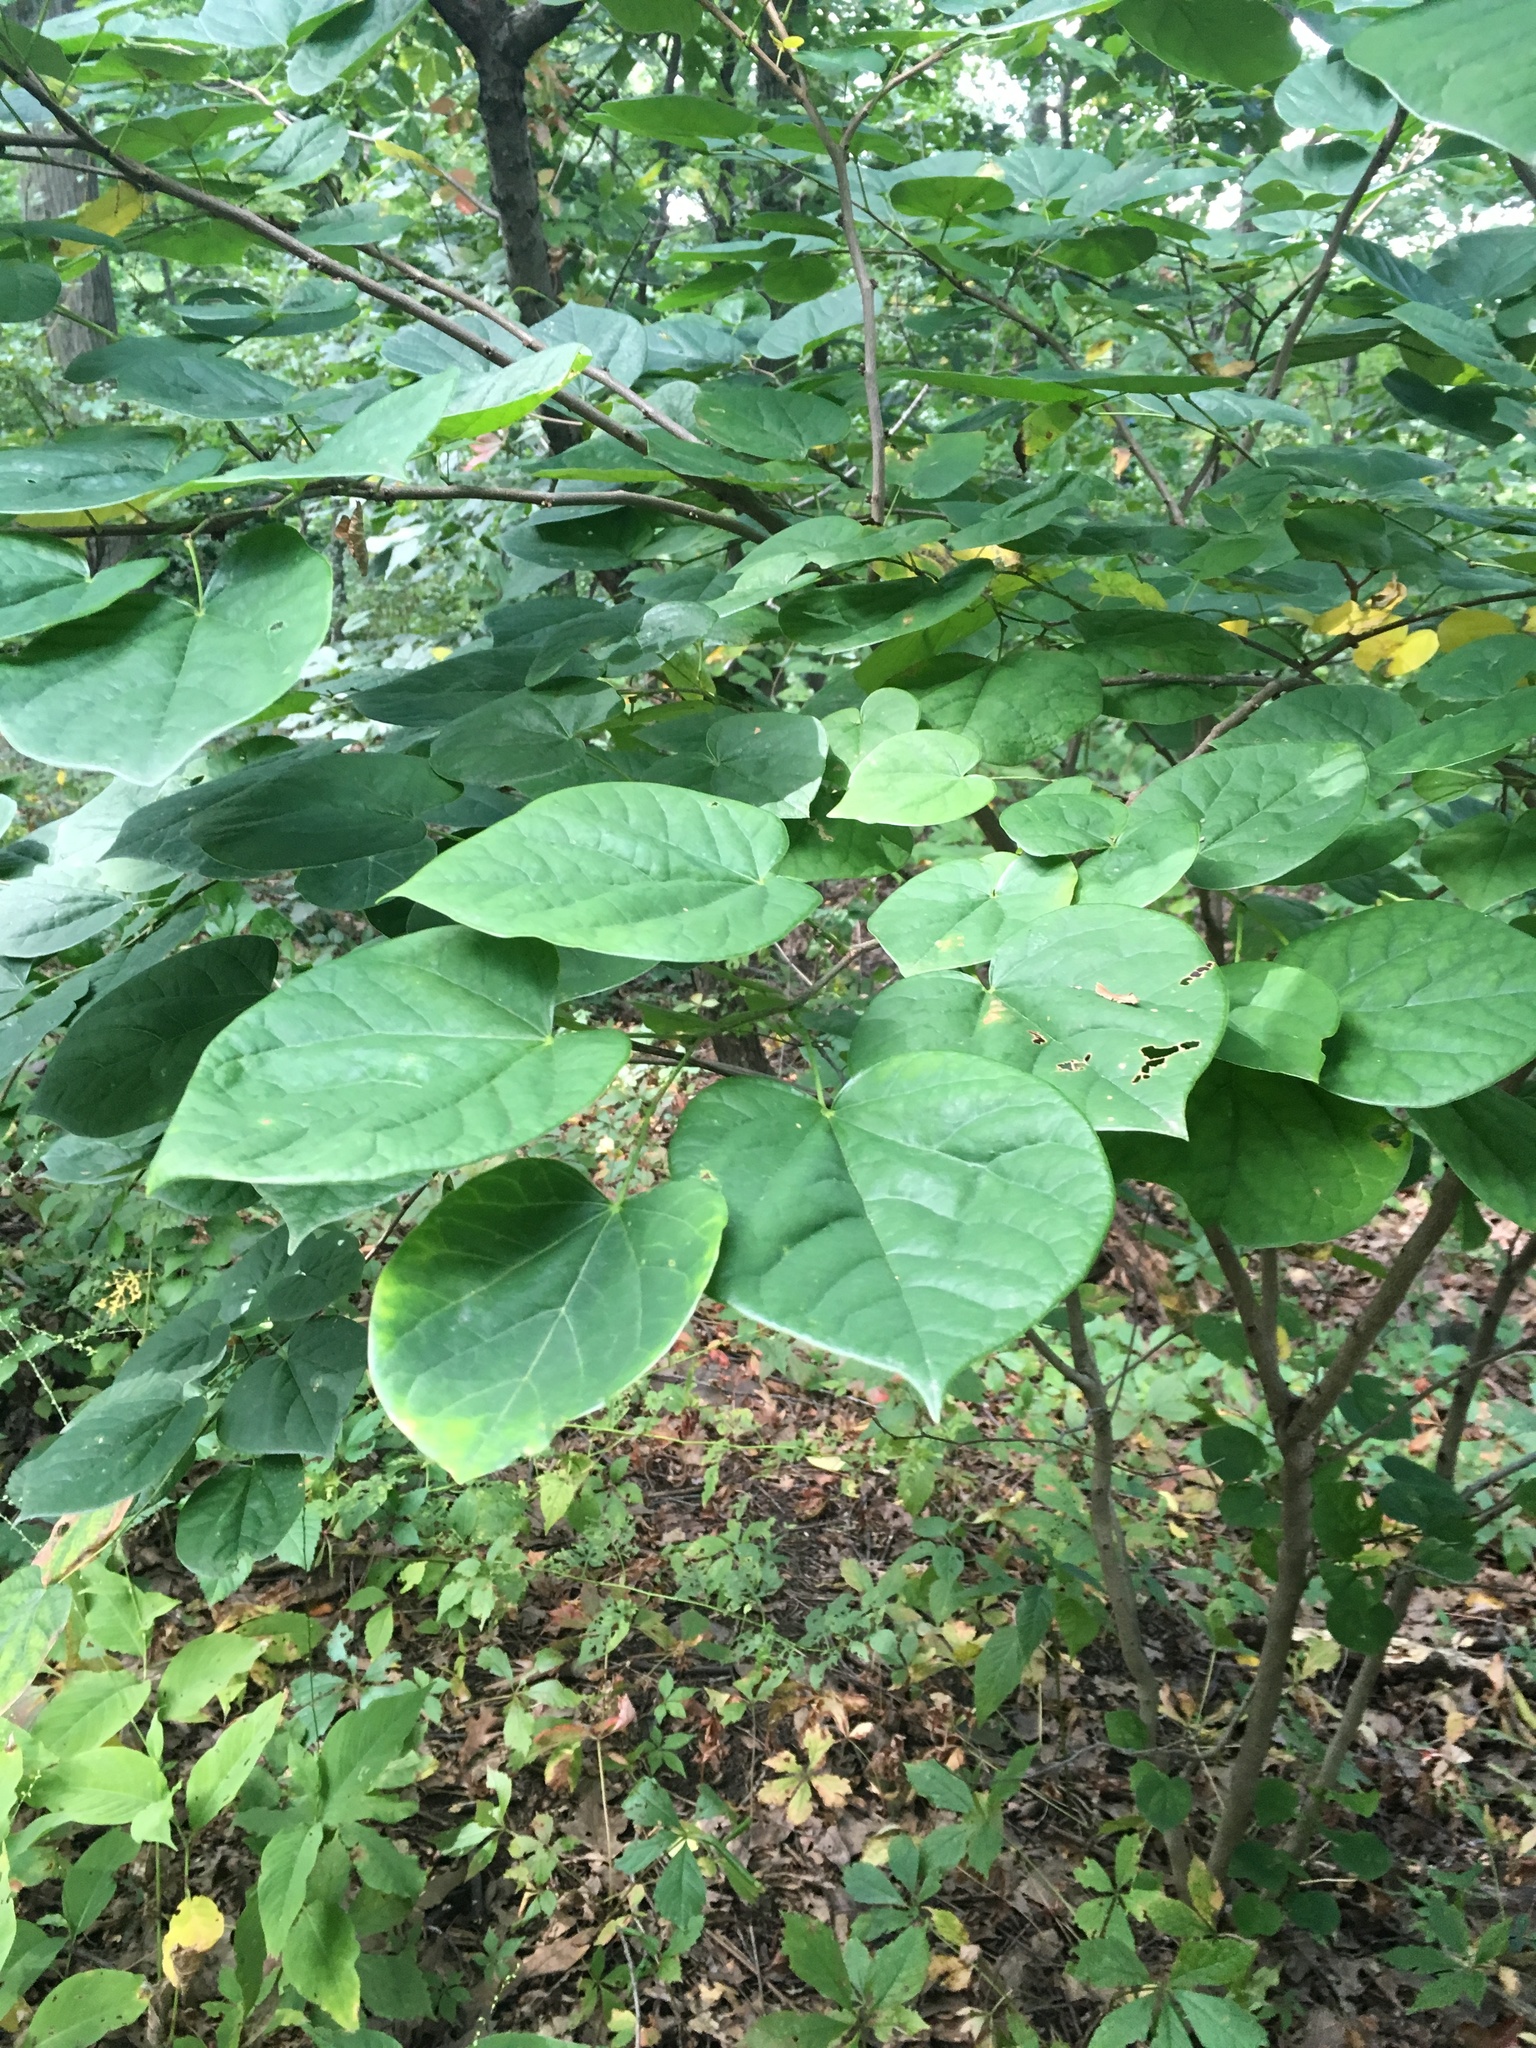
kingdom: Plantae
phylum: Tracheophyta
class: Magnoliopsida
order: Fabales
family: Fabaceae
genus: Cercis
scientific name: Cercis canadensis
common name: Eastern redbud
